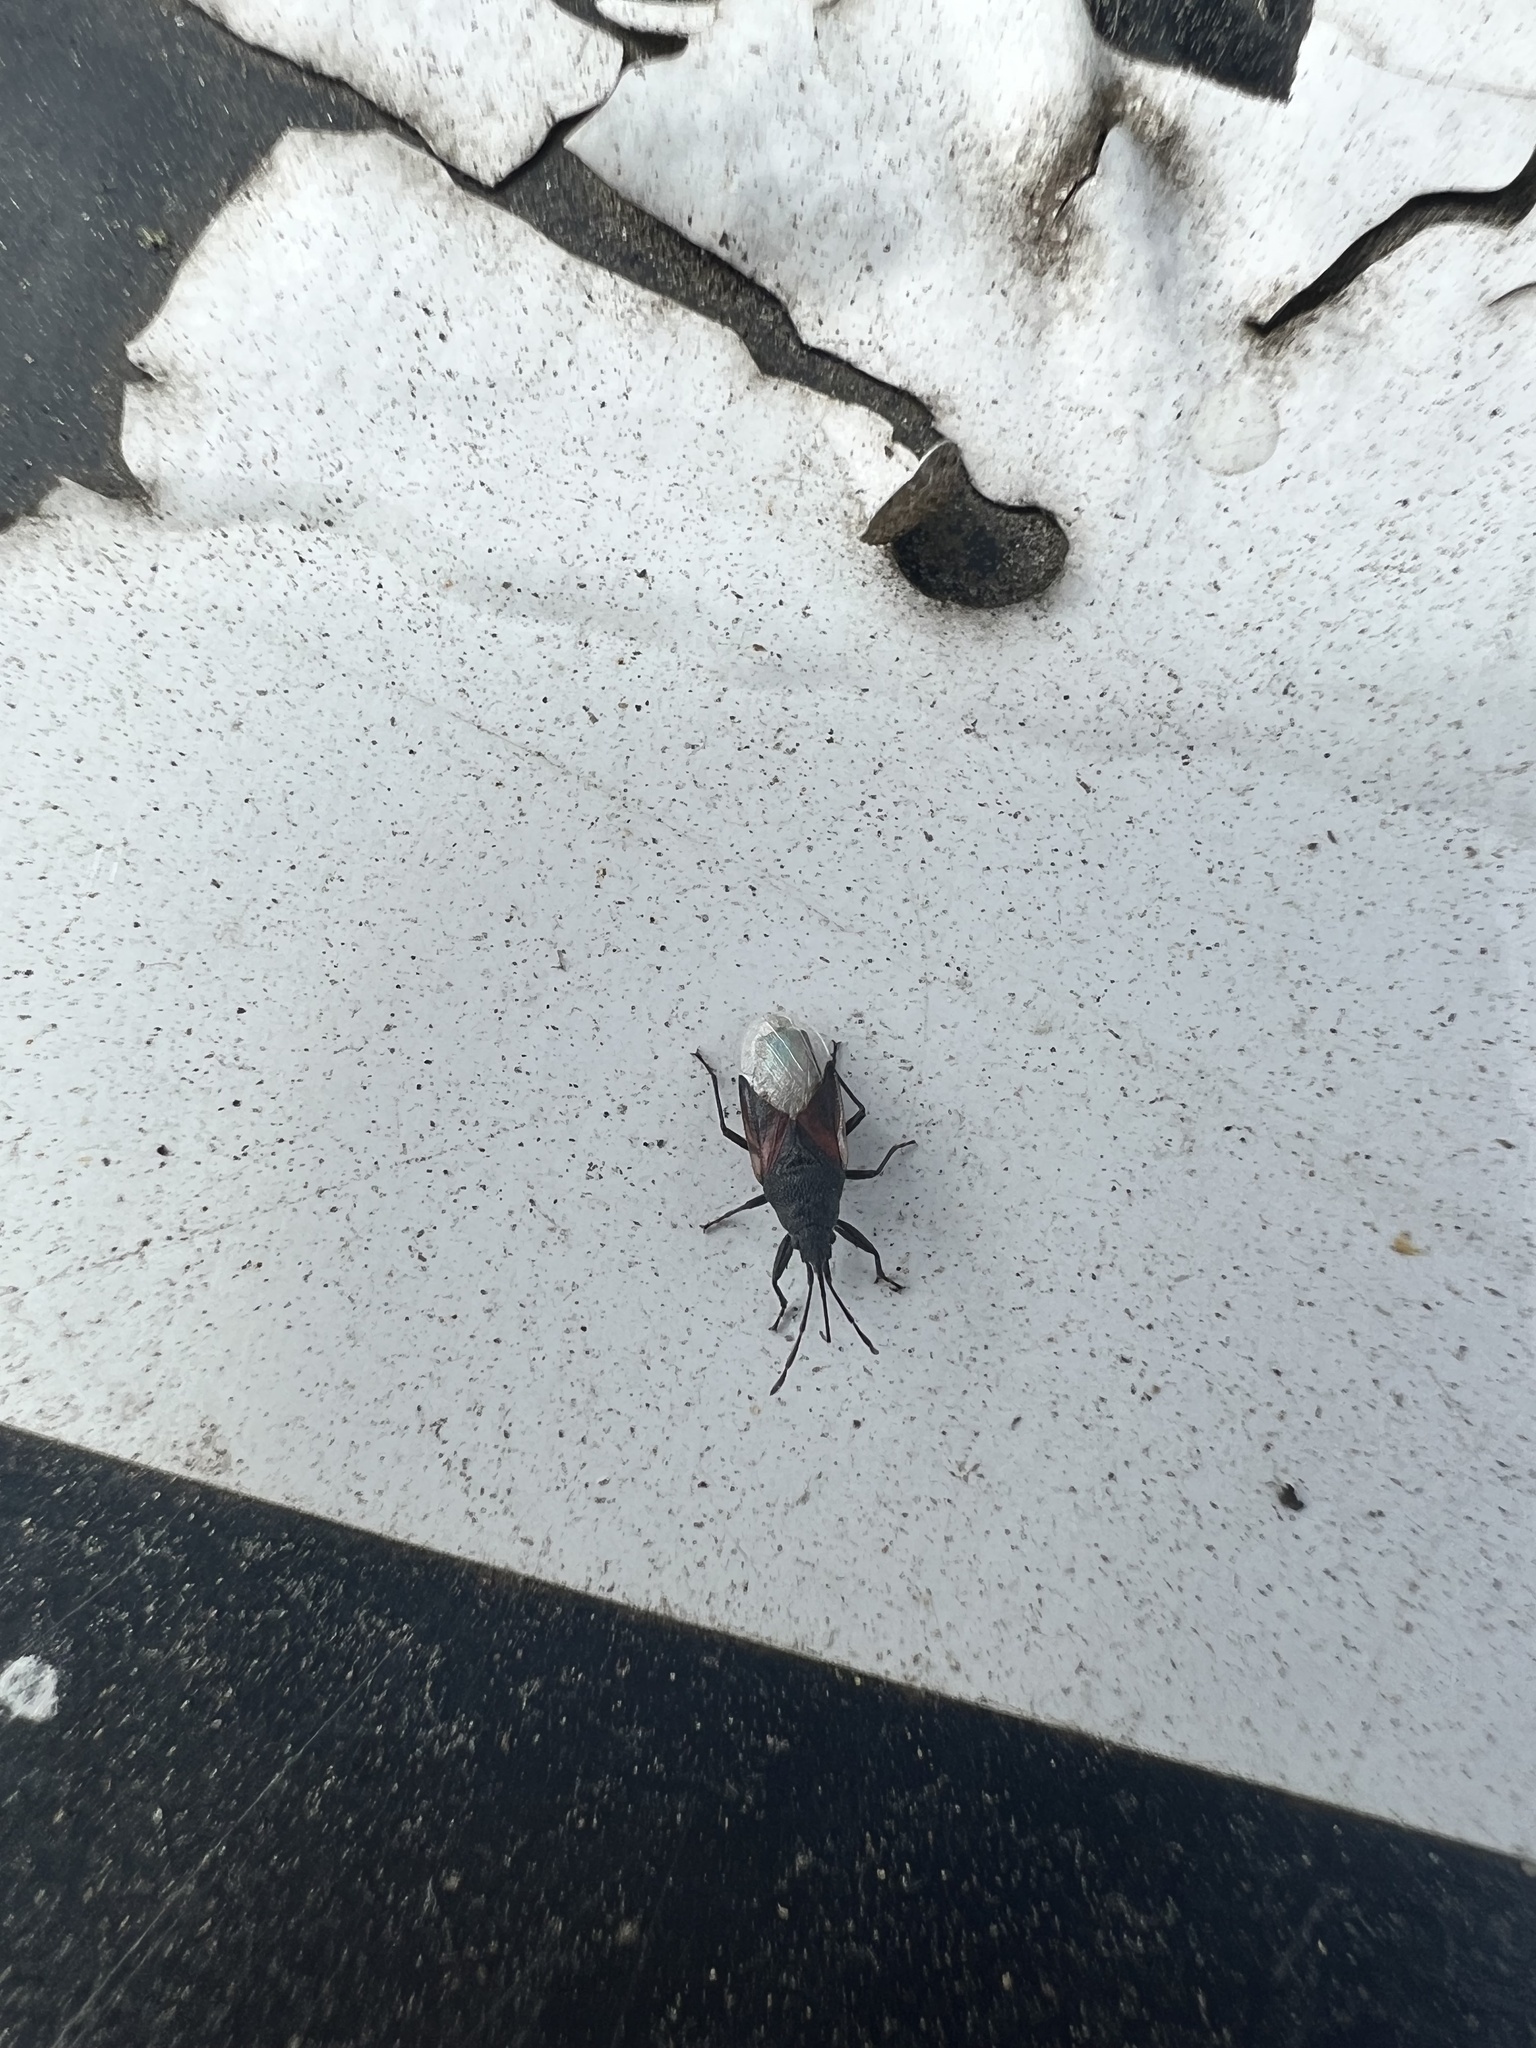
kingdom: Animalia
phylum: Arthropoda
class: Insecta
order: Hemiptera
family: Oxycarenidae
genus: Oxycarenus
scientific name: Oxycarenus lavaterae
